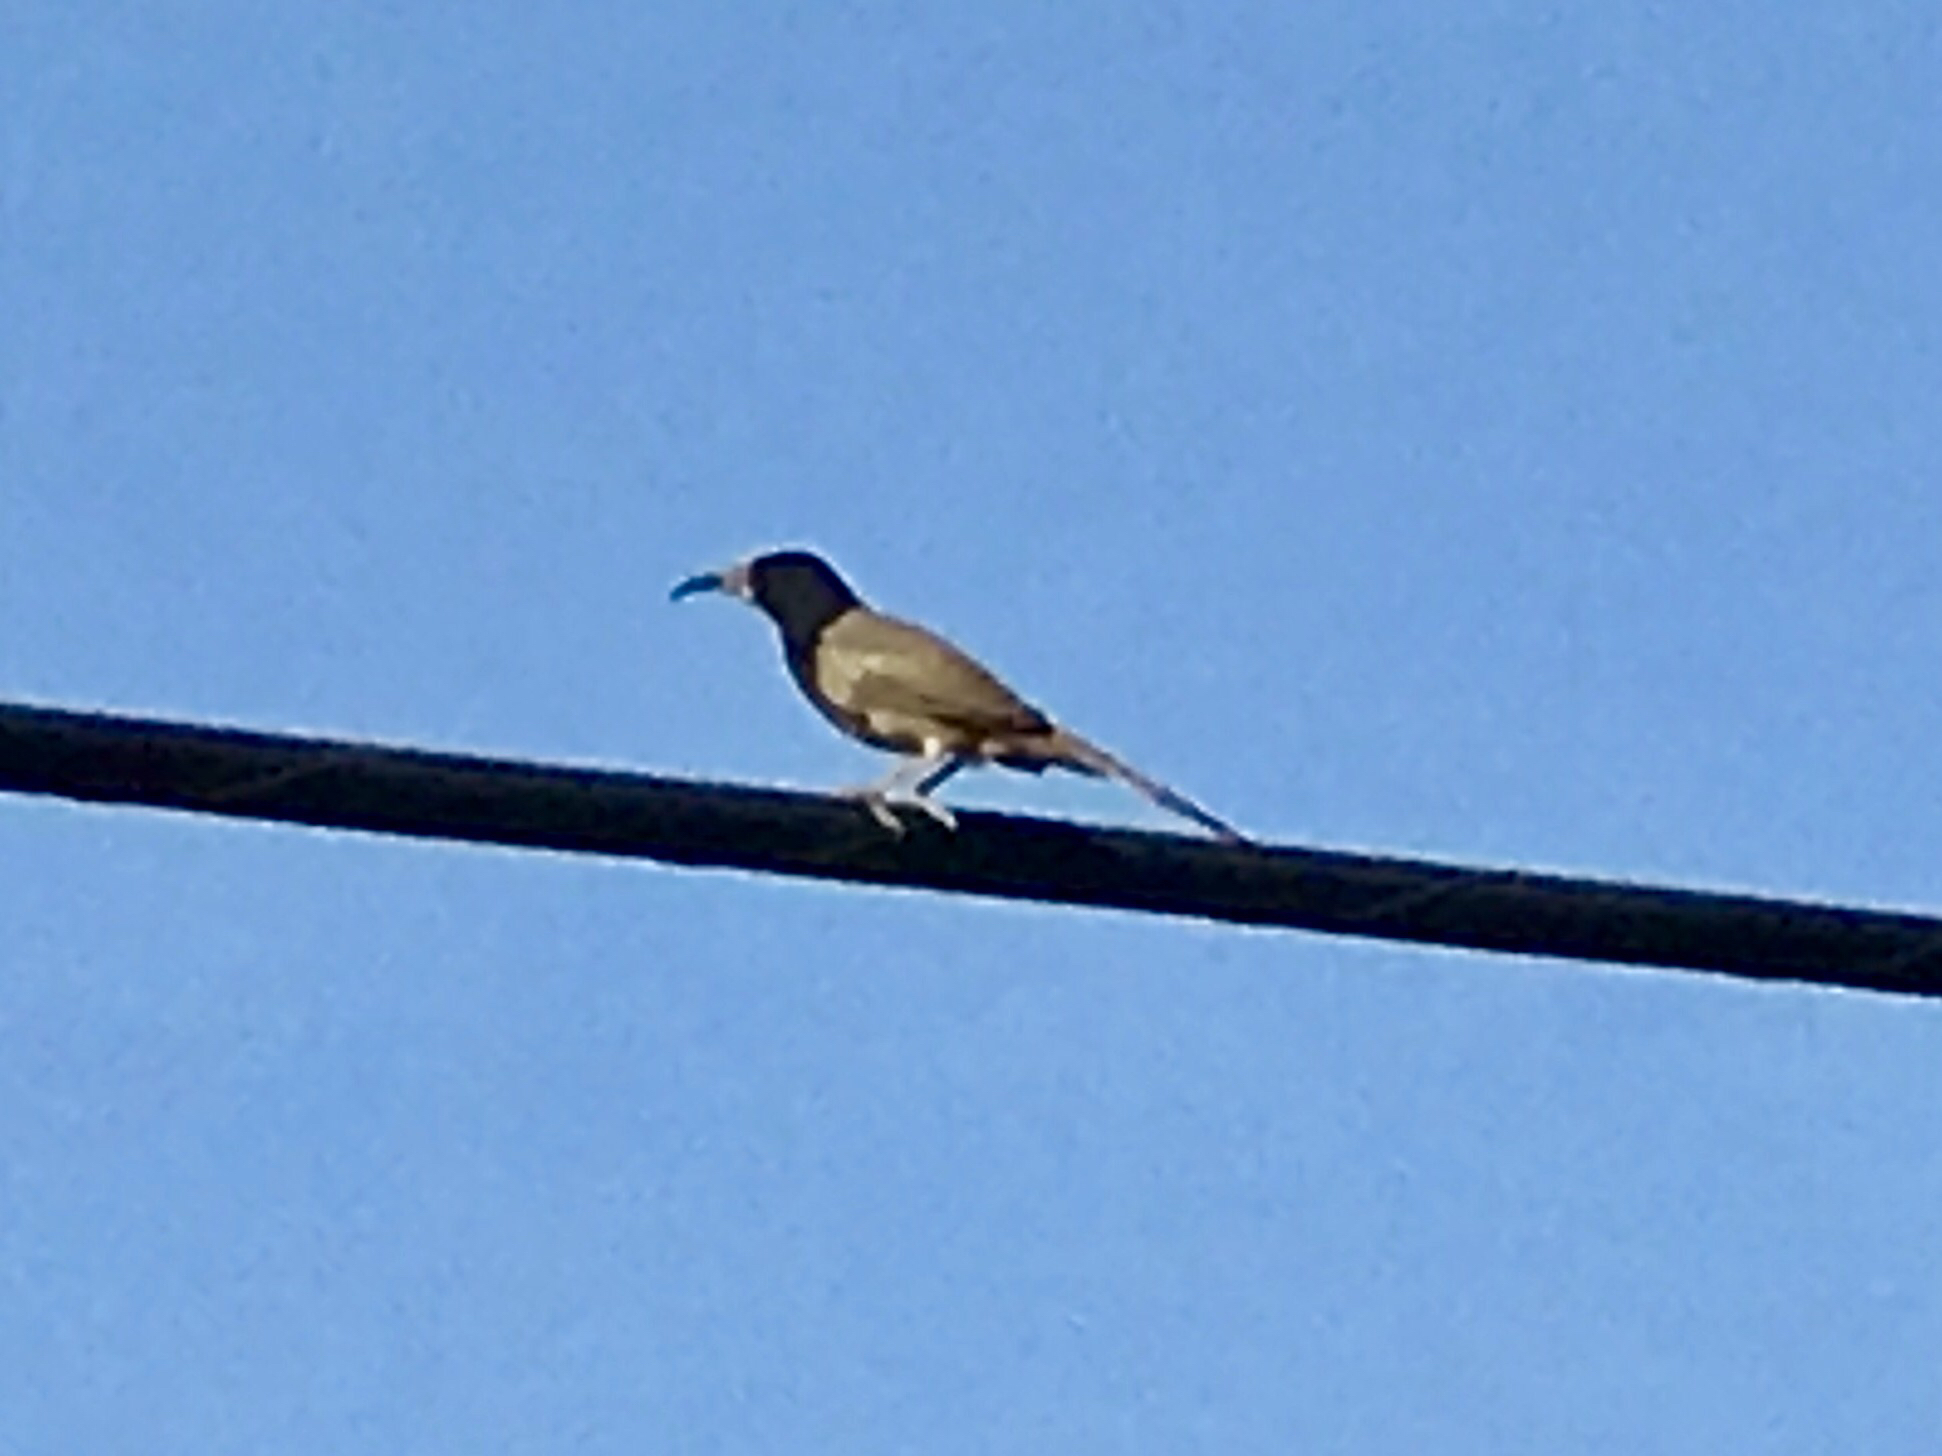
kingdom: Animalia
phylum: Chordata
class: Aves
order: Passeriformes
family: Mimidae
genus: Toxostoma
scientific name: Toxostoma curvirostre
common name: Curve-billed thrasher
